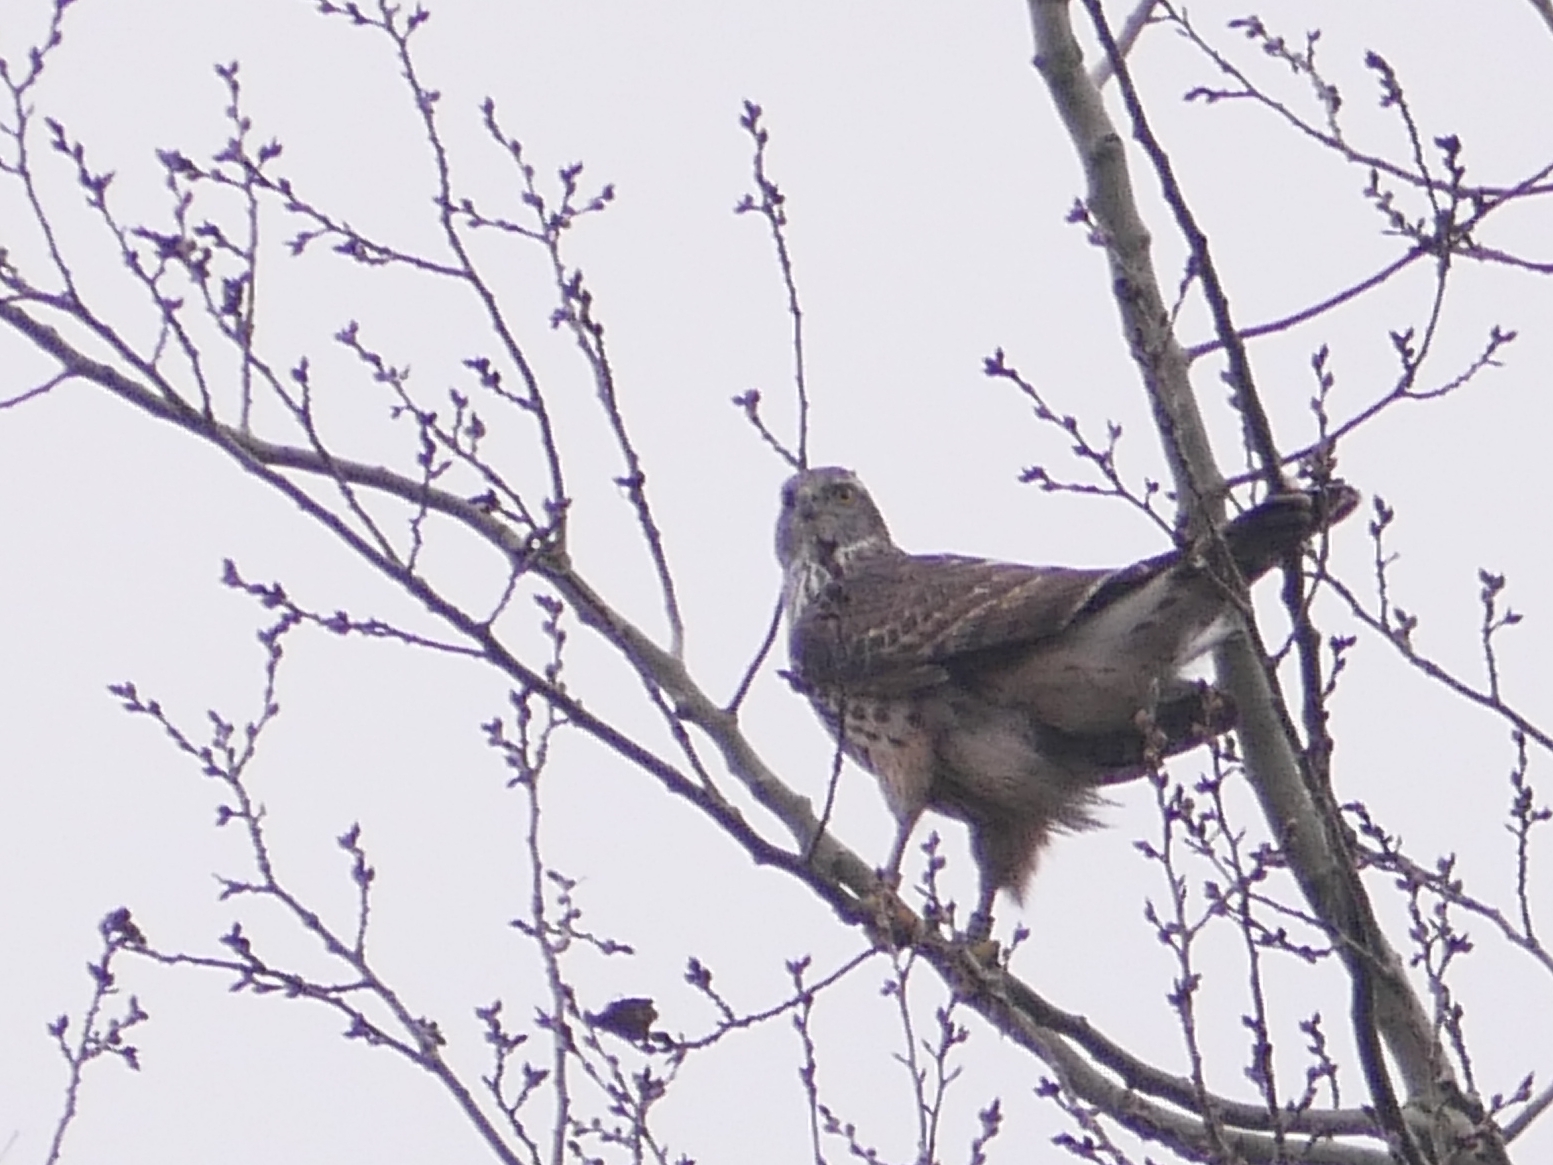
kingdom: Animalia
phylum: Chordata
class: Aves
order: Accipitriformes
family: Accipitridae
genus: Accipiter
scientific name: Accipiter gentilis
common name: Northern goshawk
